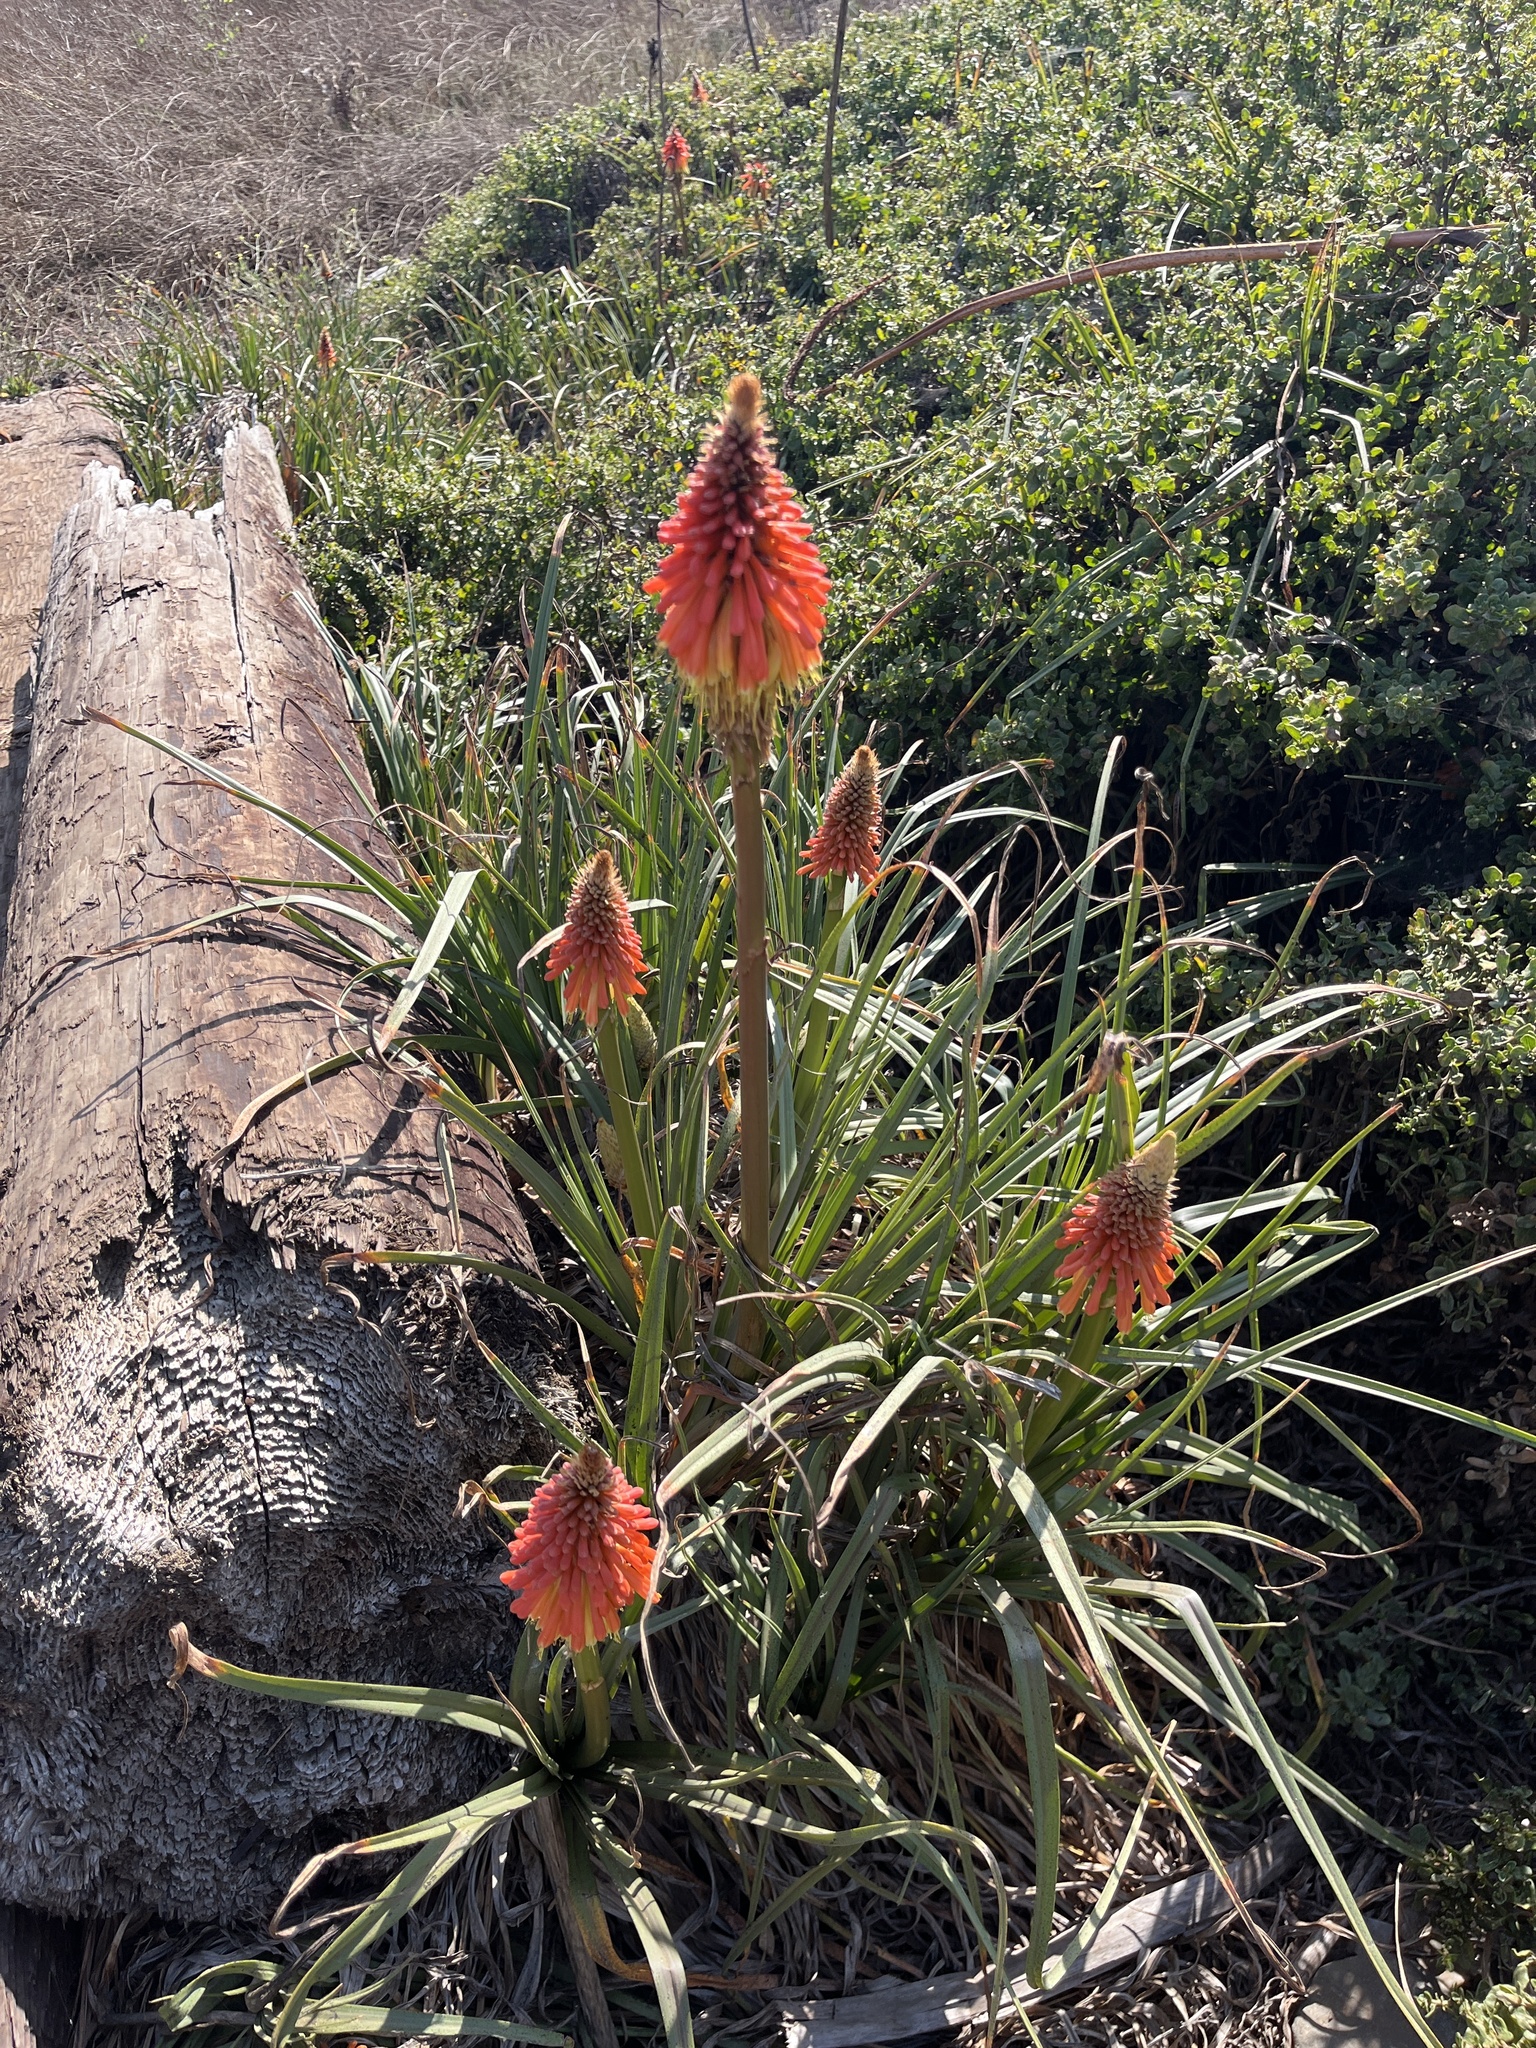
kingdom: Plantae
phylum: Tracheophyta
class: Liliopsida
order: Asparagales
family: Asphodelaceae
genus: Kniphofia
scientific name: Kniphofia uvaria
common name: Red-hot-poker
